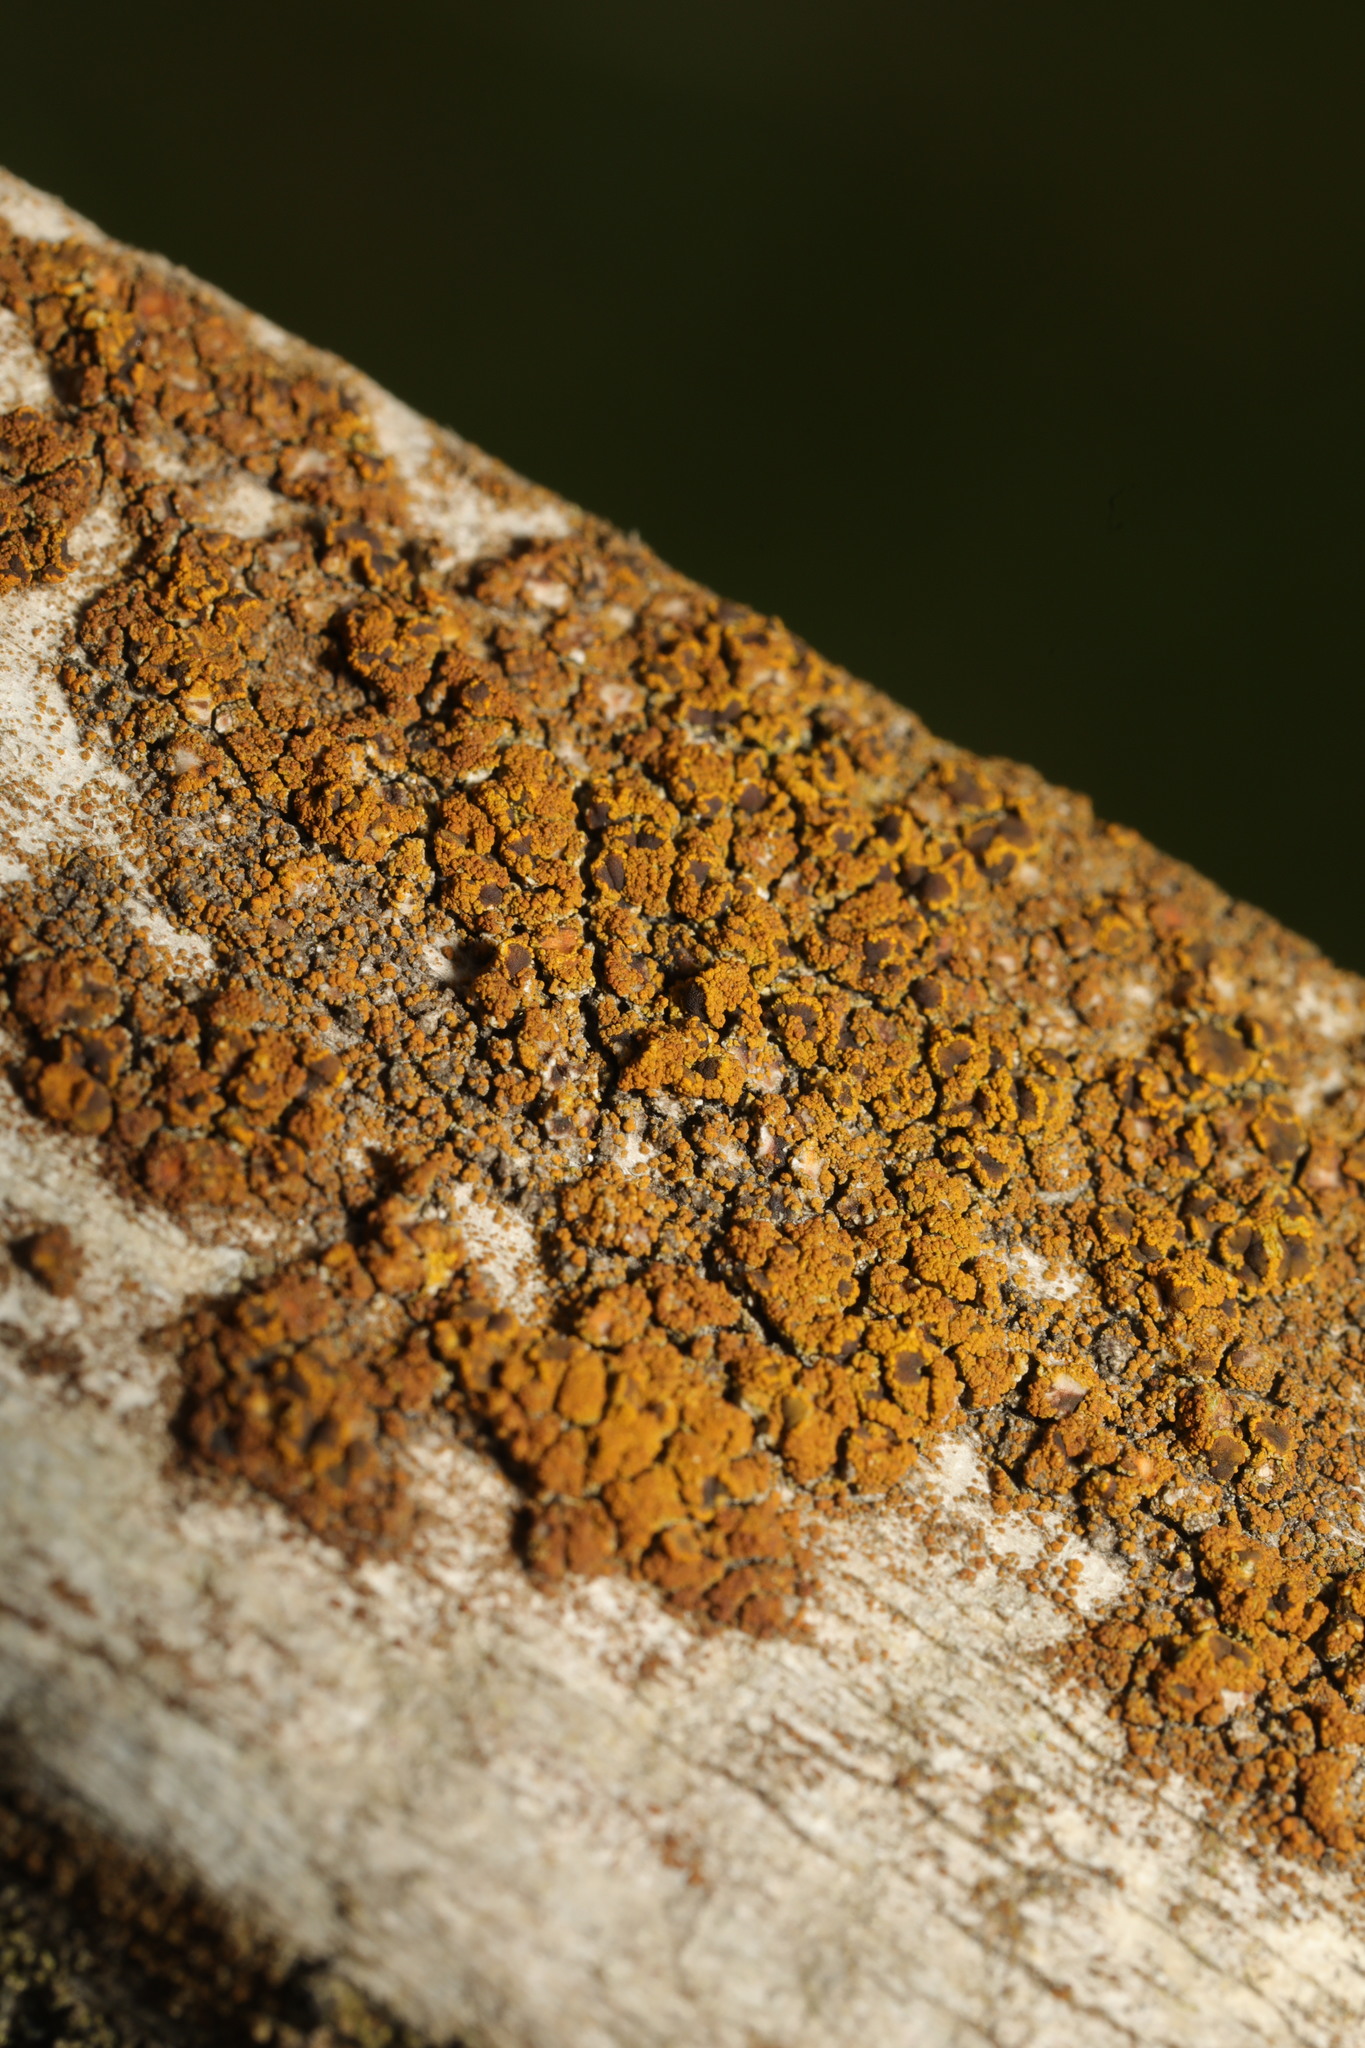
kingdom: Fungi
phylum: Ascomycota
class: Candelariomycetes
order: Candelariales
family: Candelariaceae
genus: Candelariella
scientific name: Candelariella vitellina
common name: Common goldspeck
